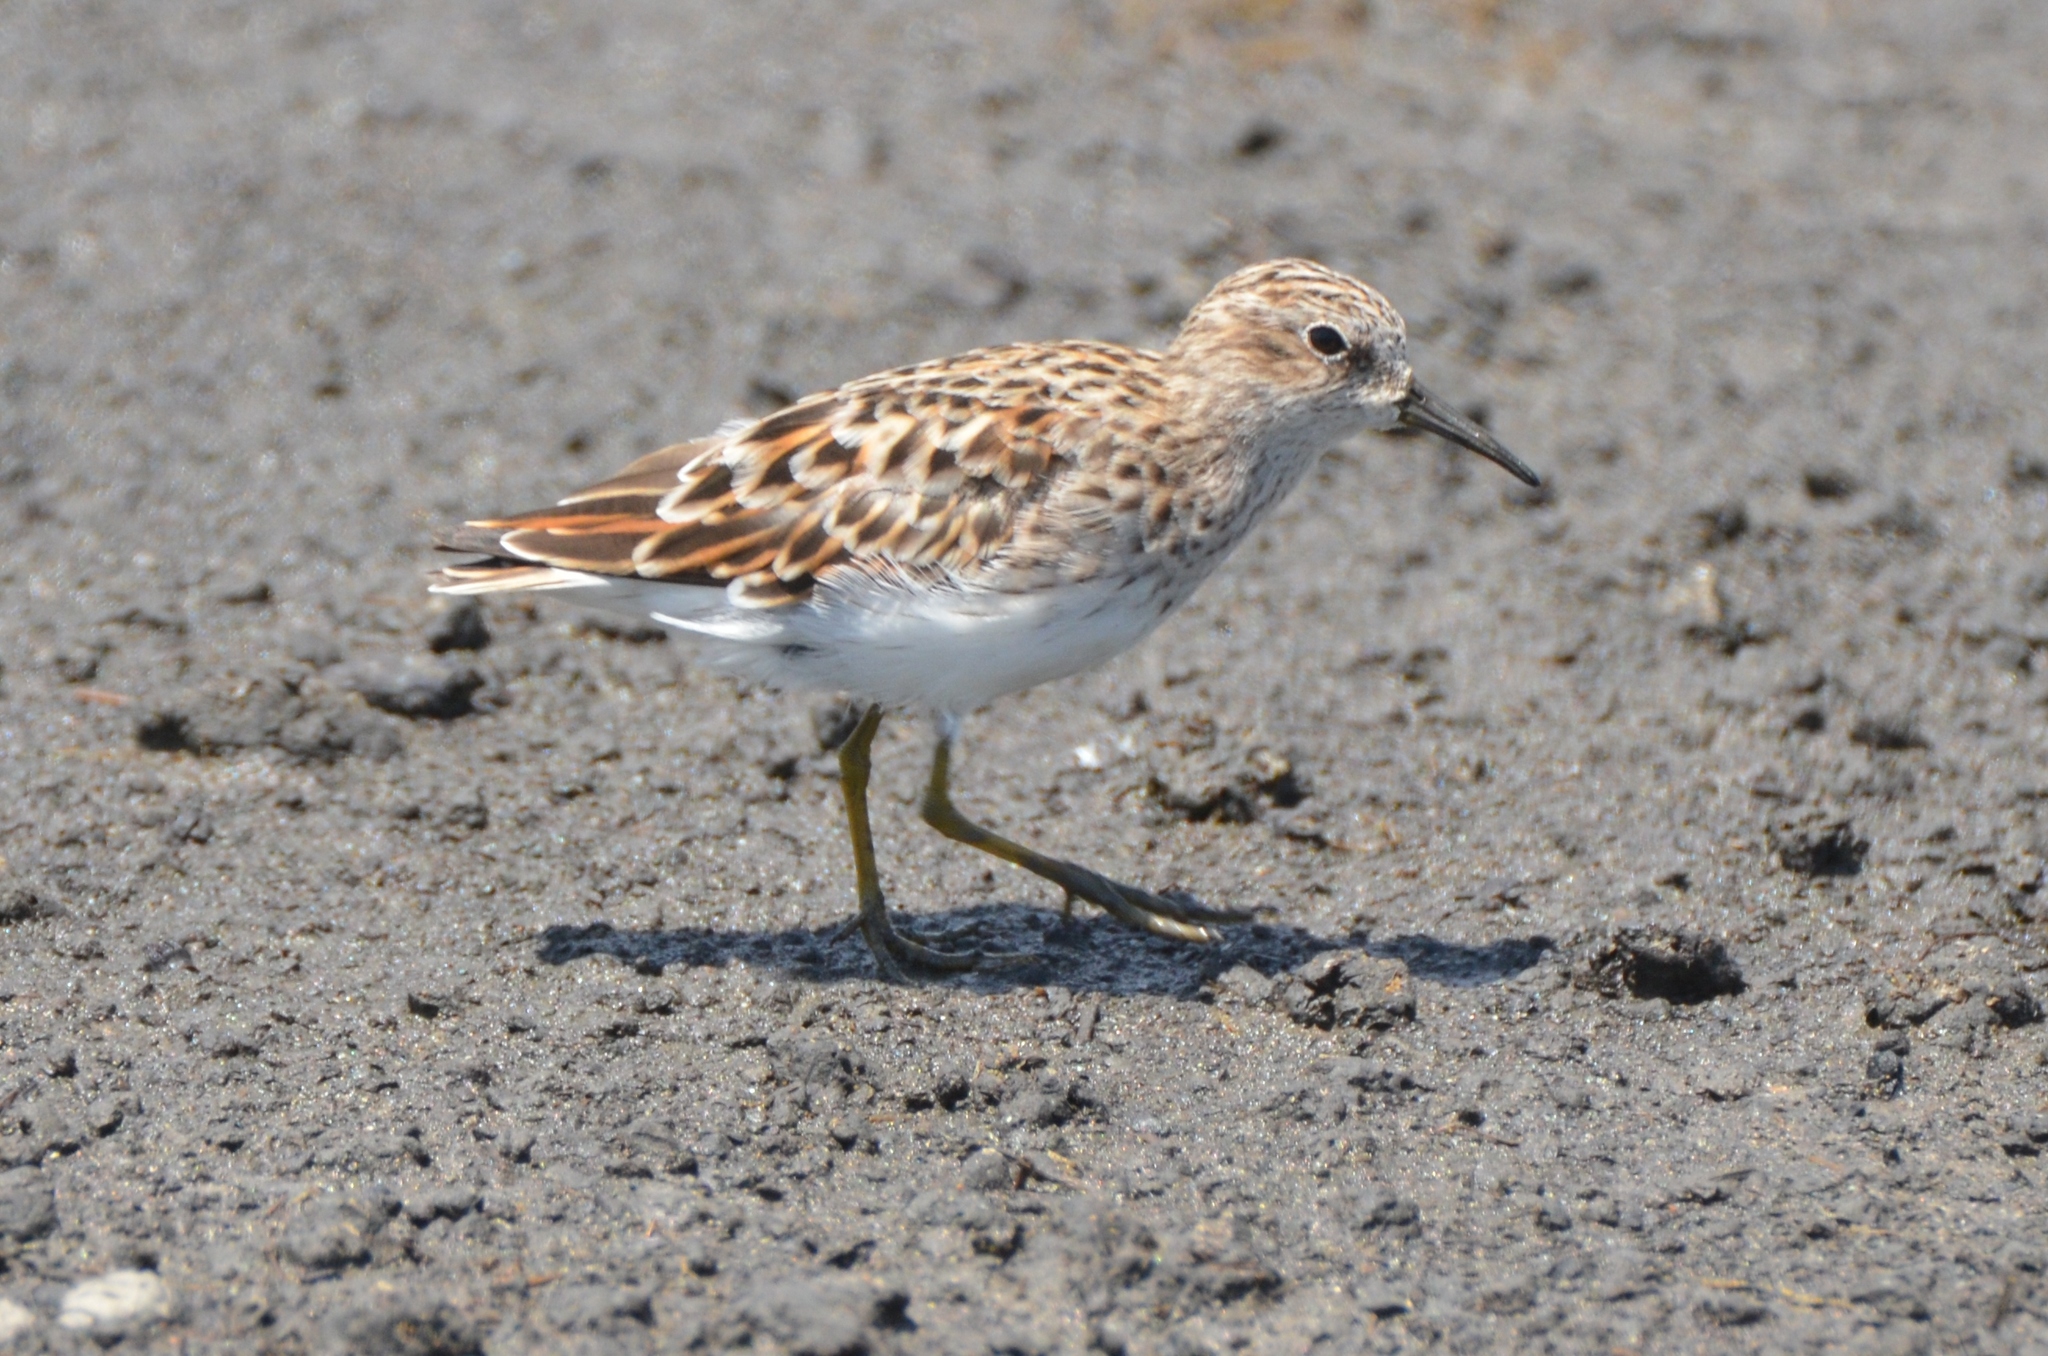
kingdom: Animalia
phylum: Chordata
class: Aves
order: Charadriiformes
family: Scolopacidae
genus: Calidris
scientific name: Calidris minutilla
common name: Least sandpiper
